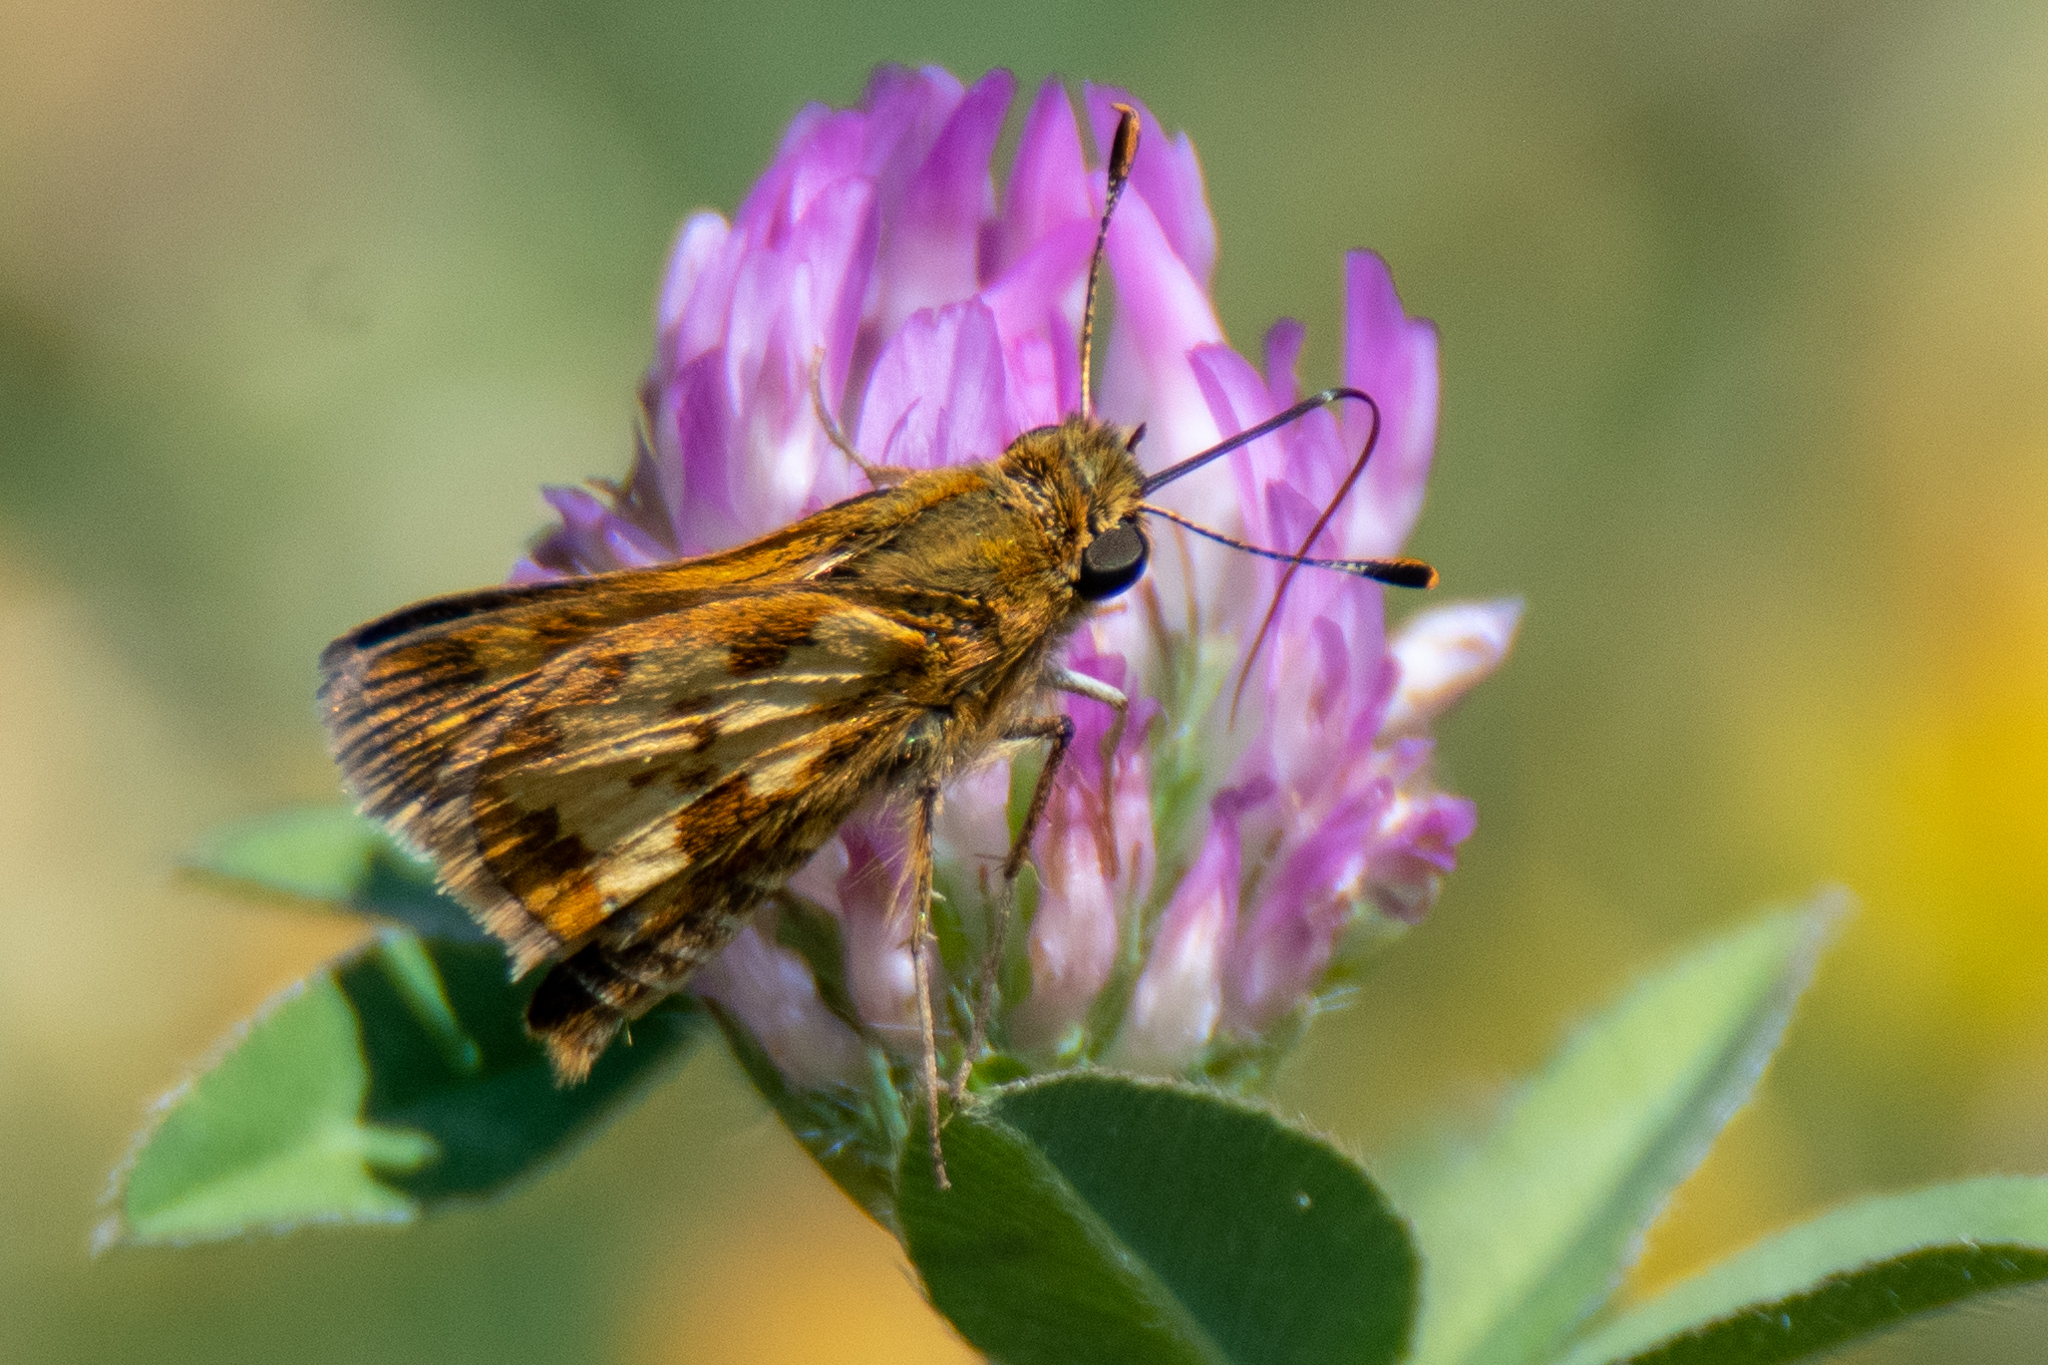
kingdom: Animalia
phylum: Arthropoda
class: Insecta
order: Lepidoptera
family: Hesperiidae
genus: Polites
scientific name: Polites coras
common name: Peck's skipper
